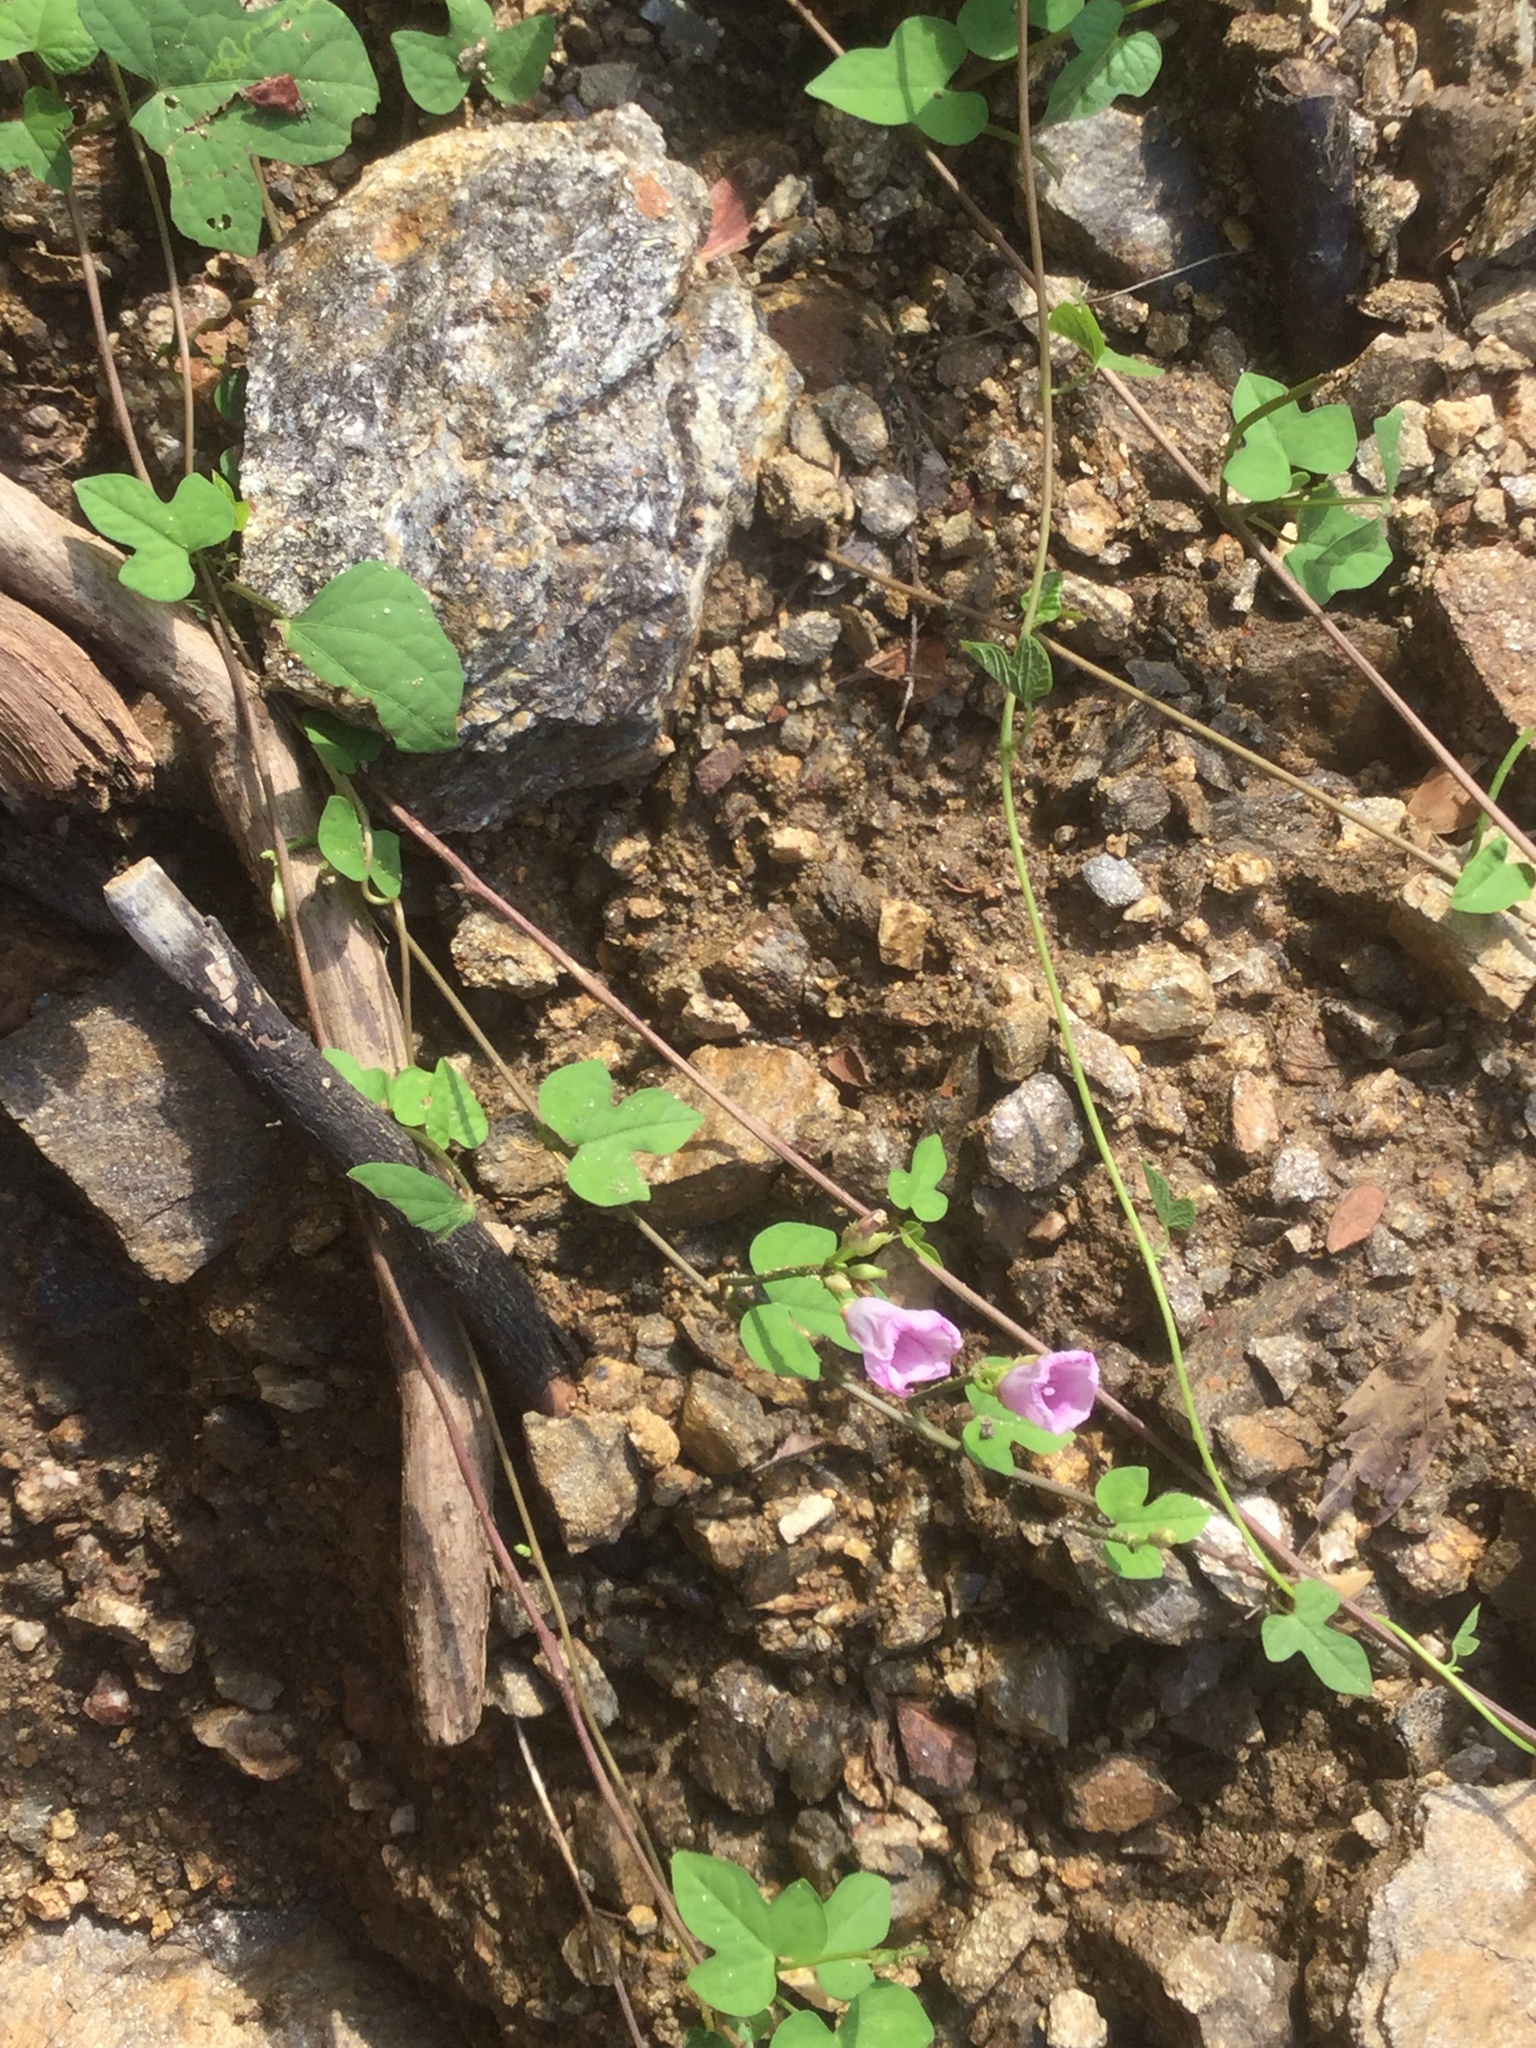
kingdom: Plantae
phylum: Tracheophyta
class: Magnoliopsida
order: Solanales
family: Convolvulaceae
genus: Ipomoea
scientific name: Ipomoea triloba
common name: Little-bell
